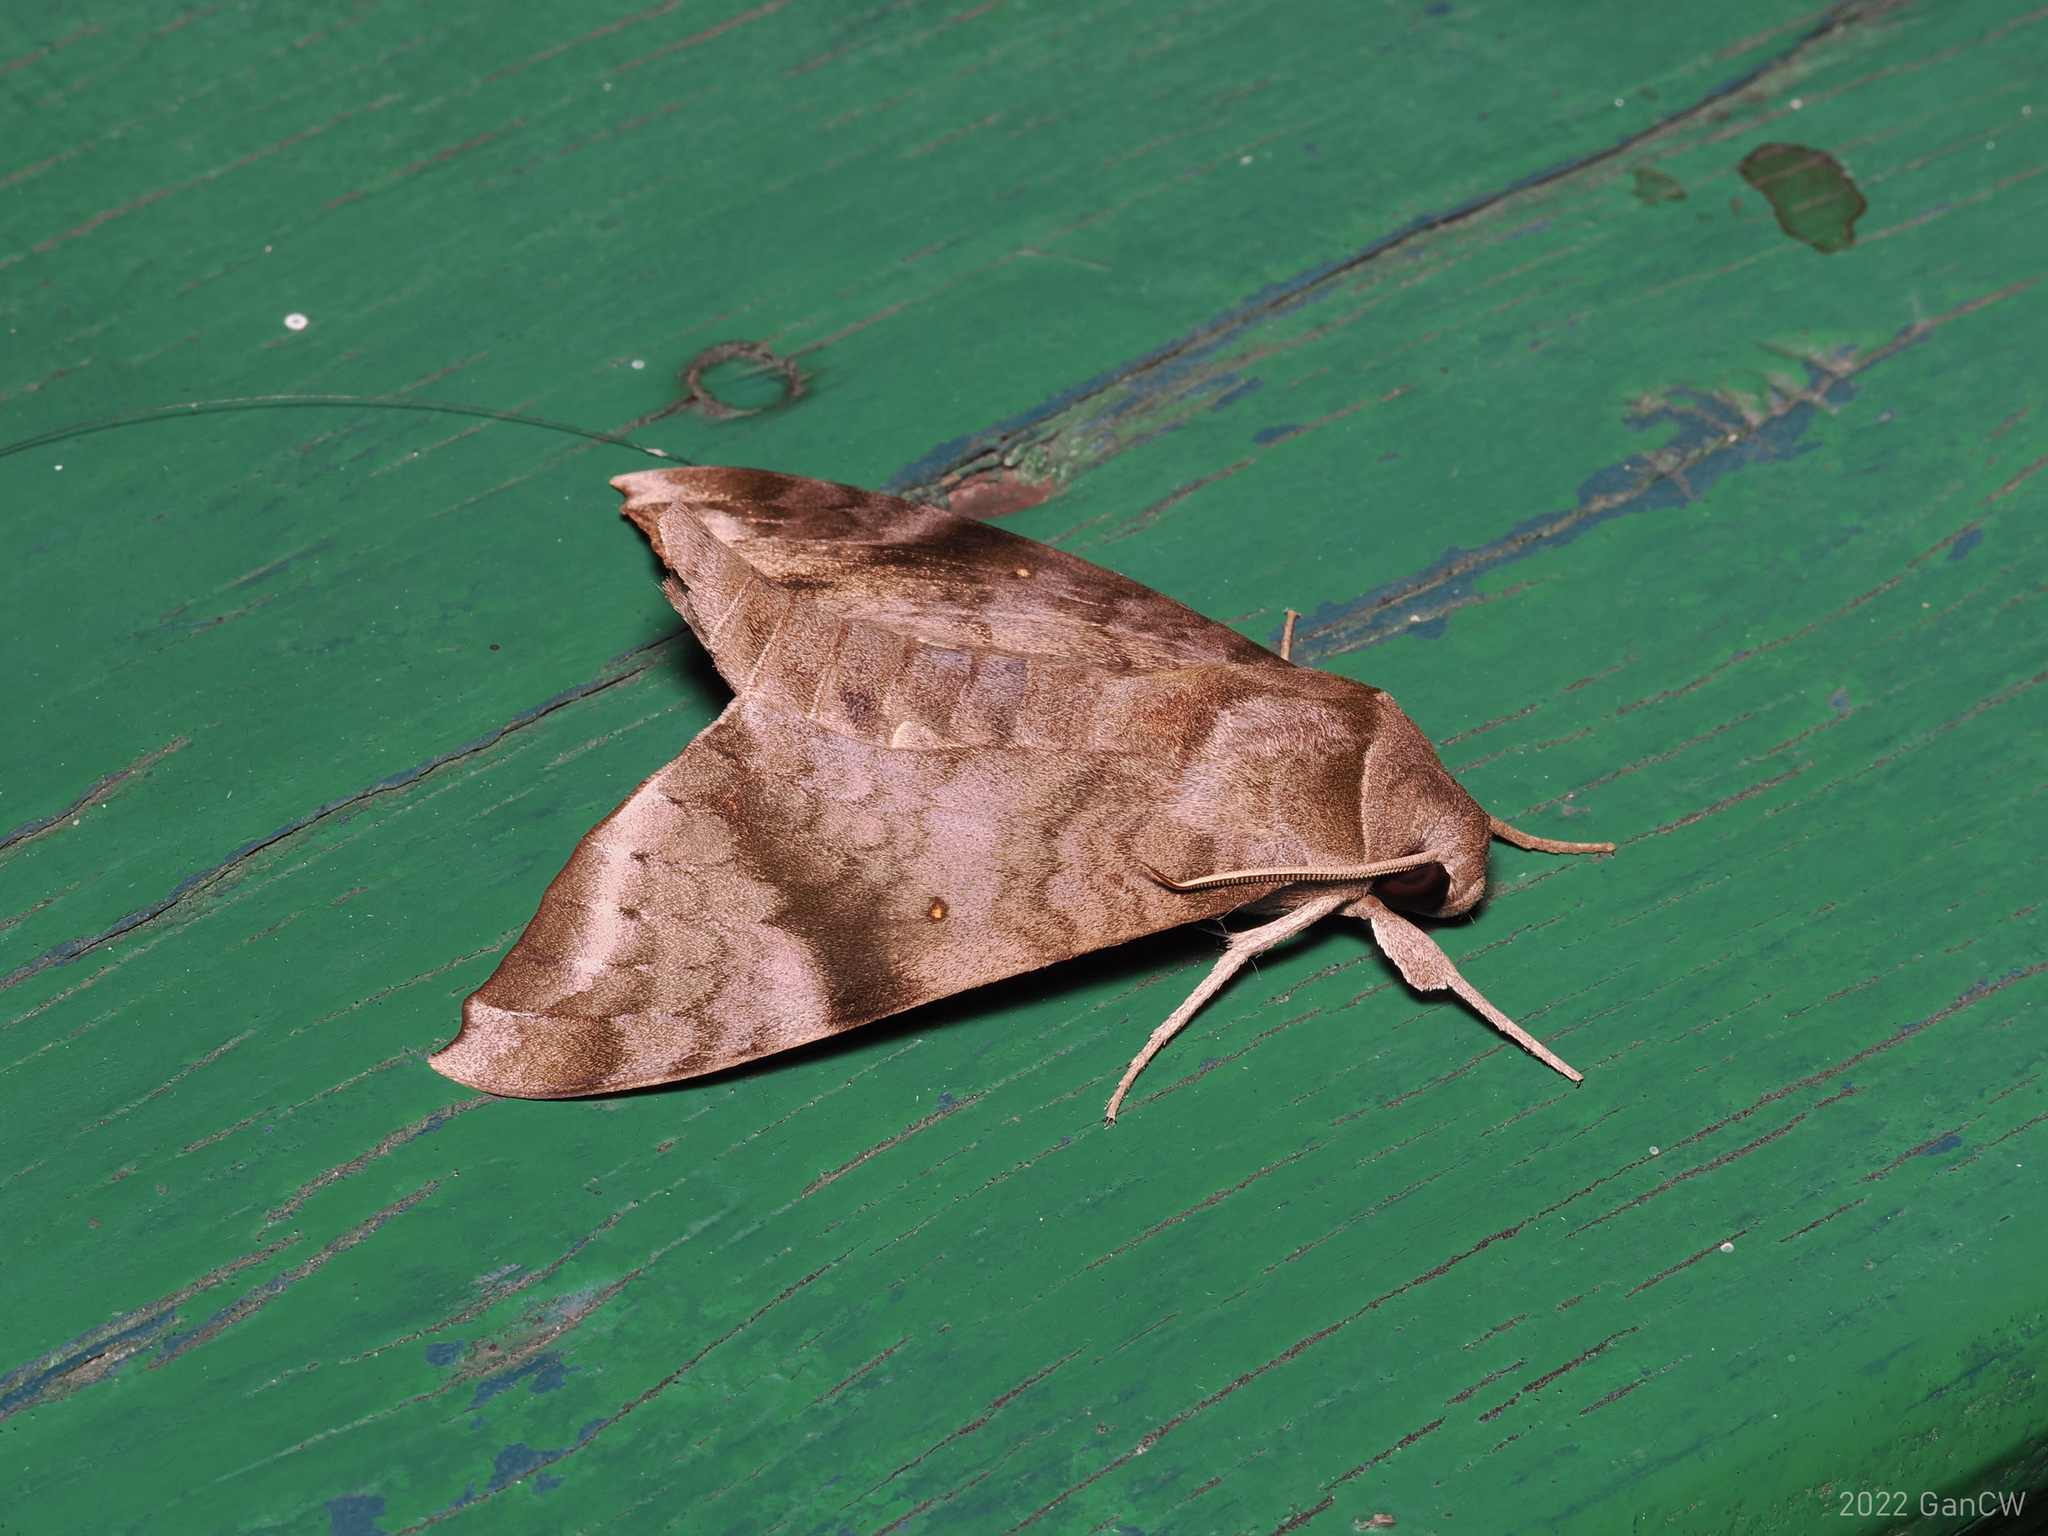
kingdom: Animalia
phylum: Arthropoda
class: Insecta
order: Lepidoptera
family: Sphingidae
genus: Acosmeryx
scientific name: Acosmeryx shervillii
